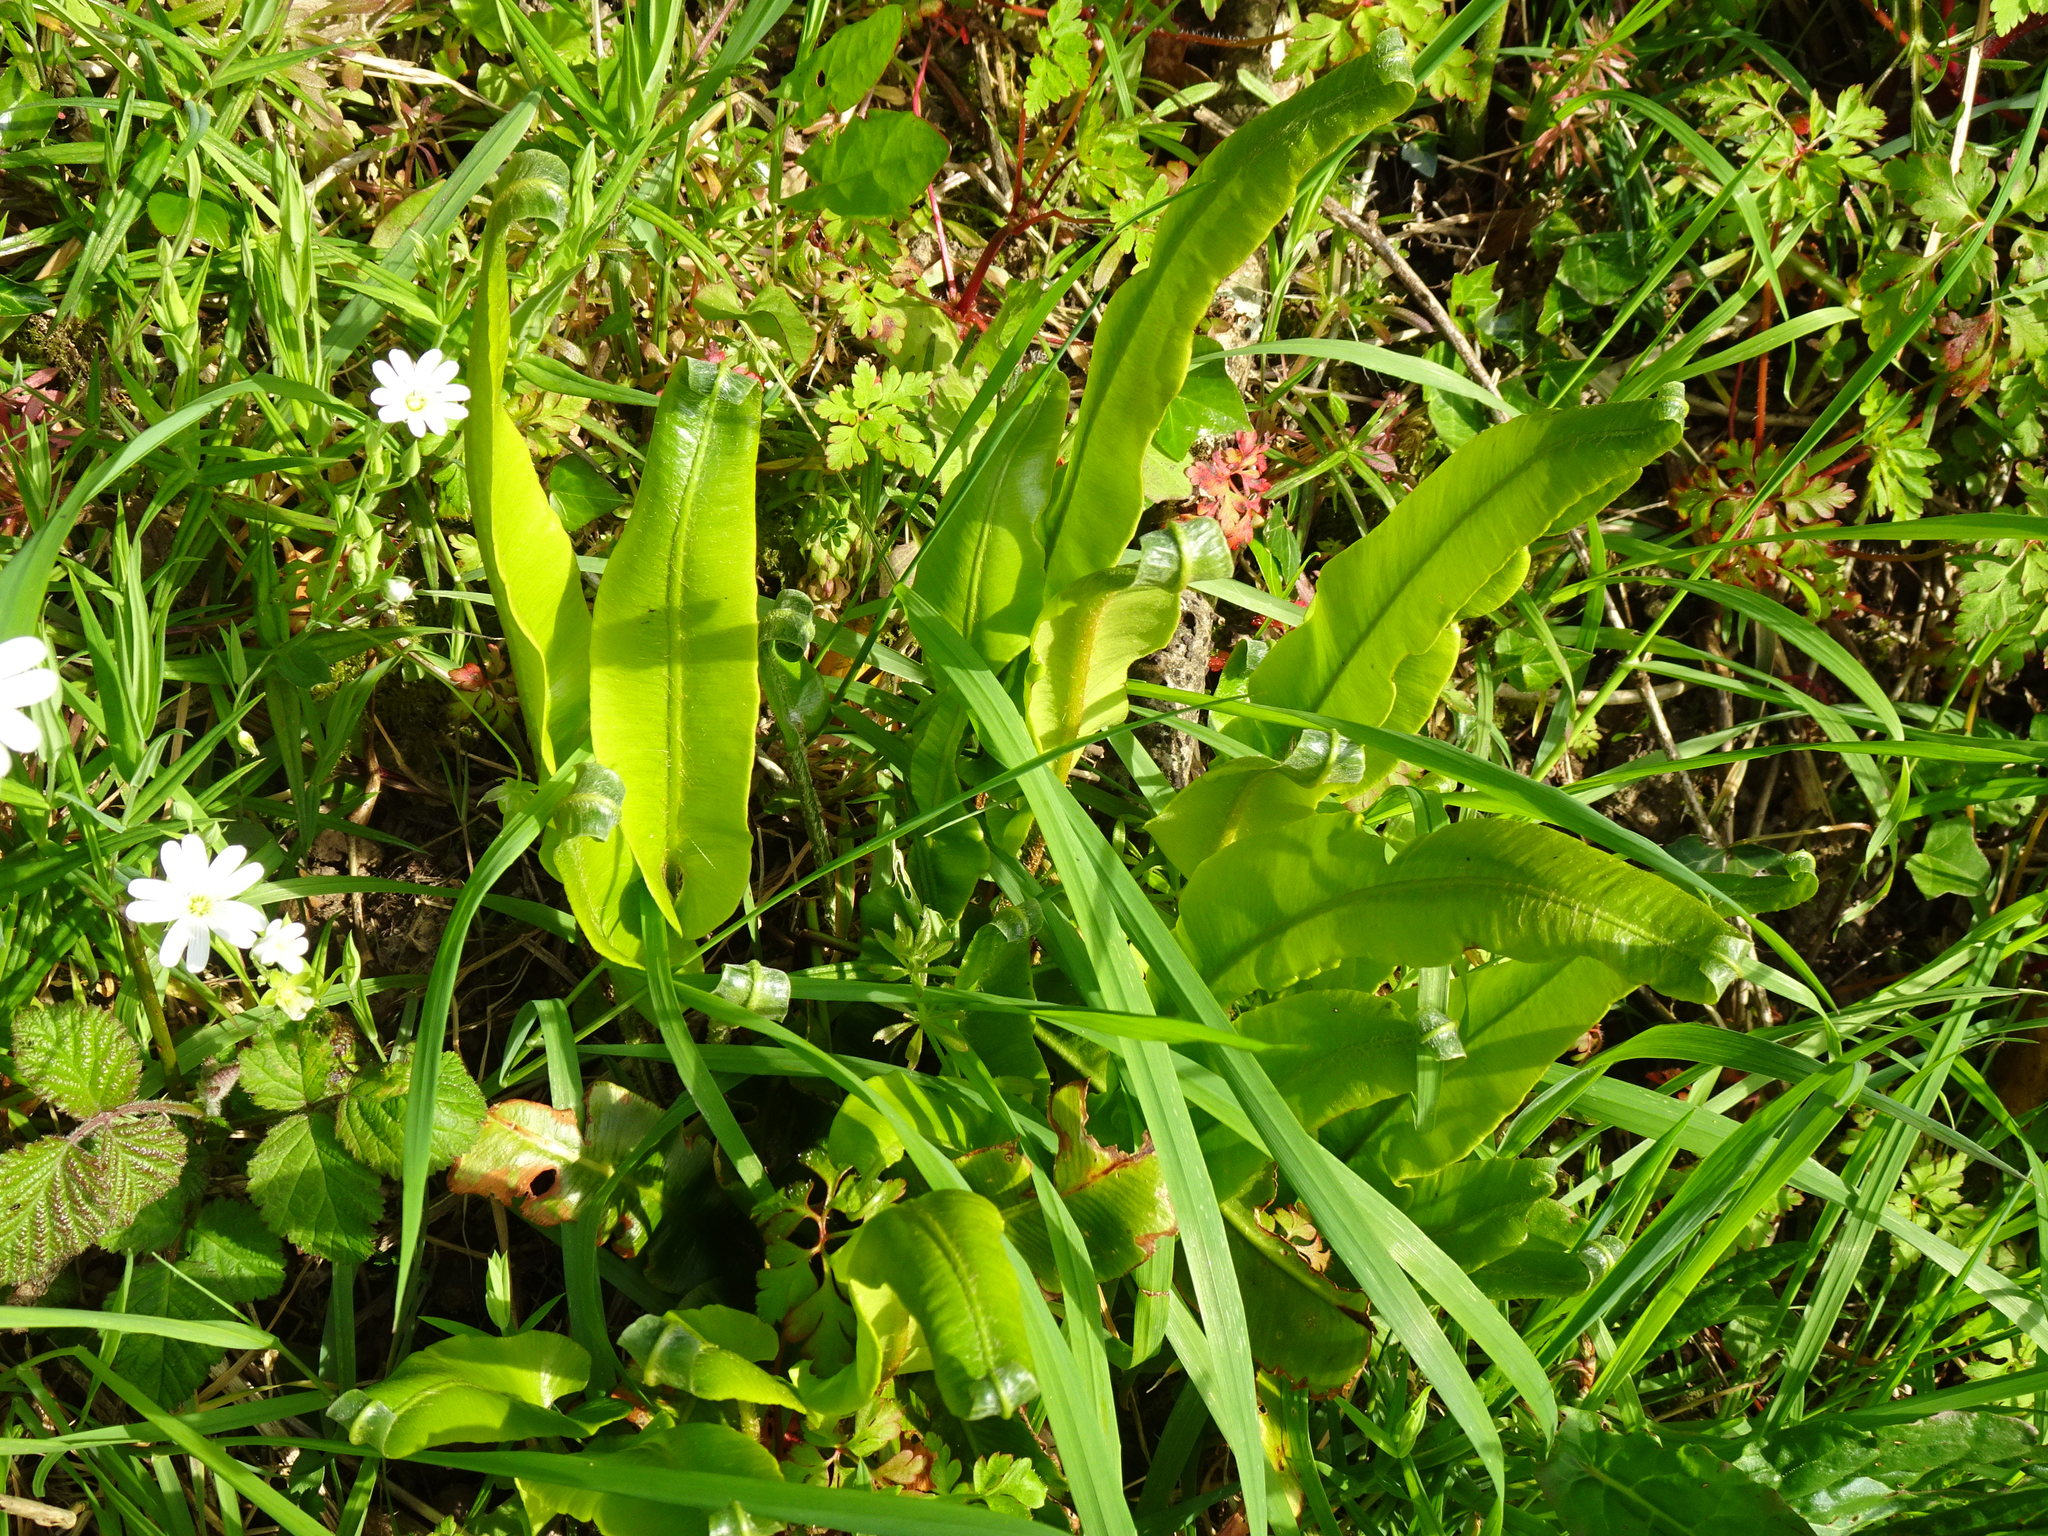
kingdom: Plantae
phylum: Tracheophyta
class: Polypodiopsida
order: Polypodiales
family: Aspleniaceae
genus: Asplenium
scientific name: Asplenium scolopendrium
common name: Hart's-tongue fern
